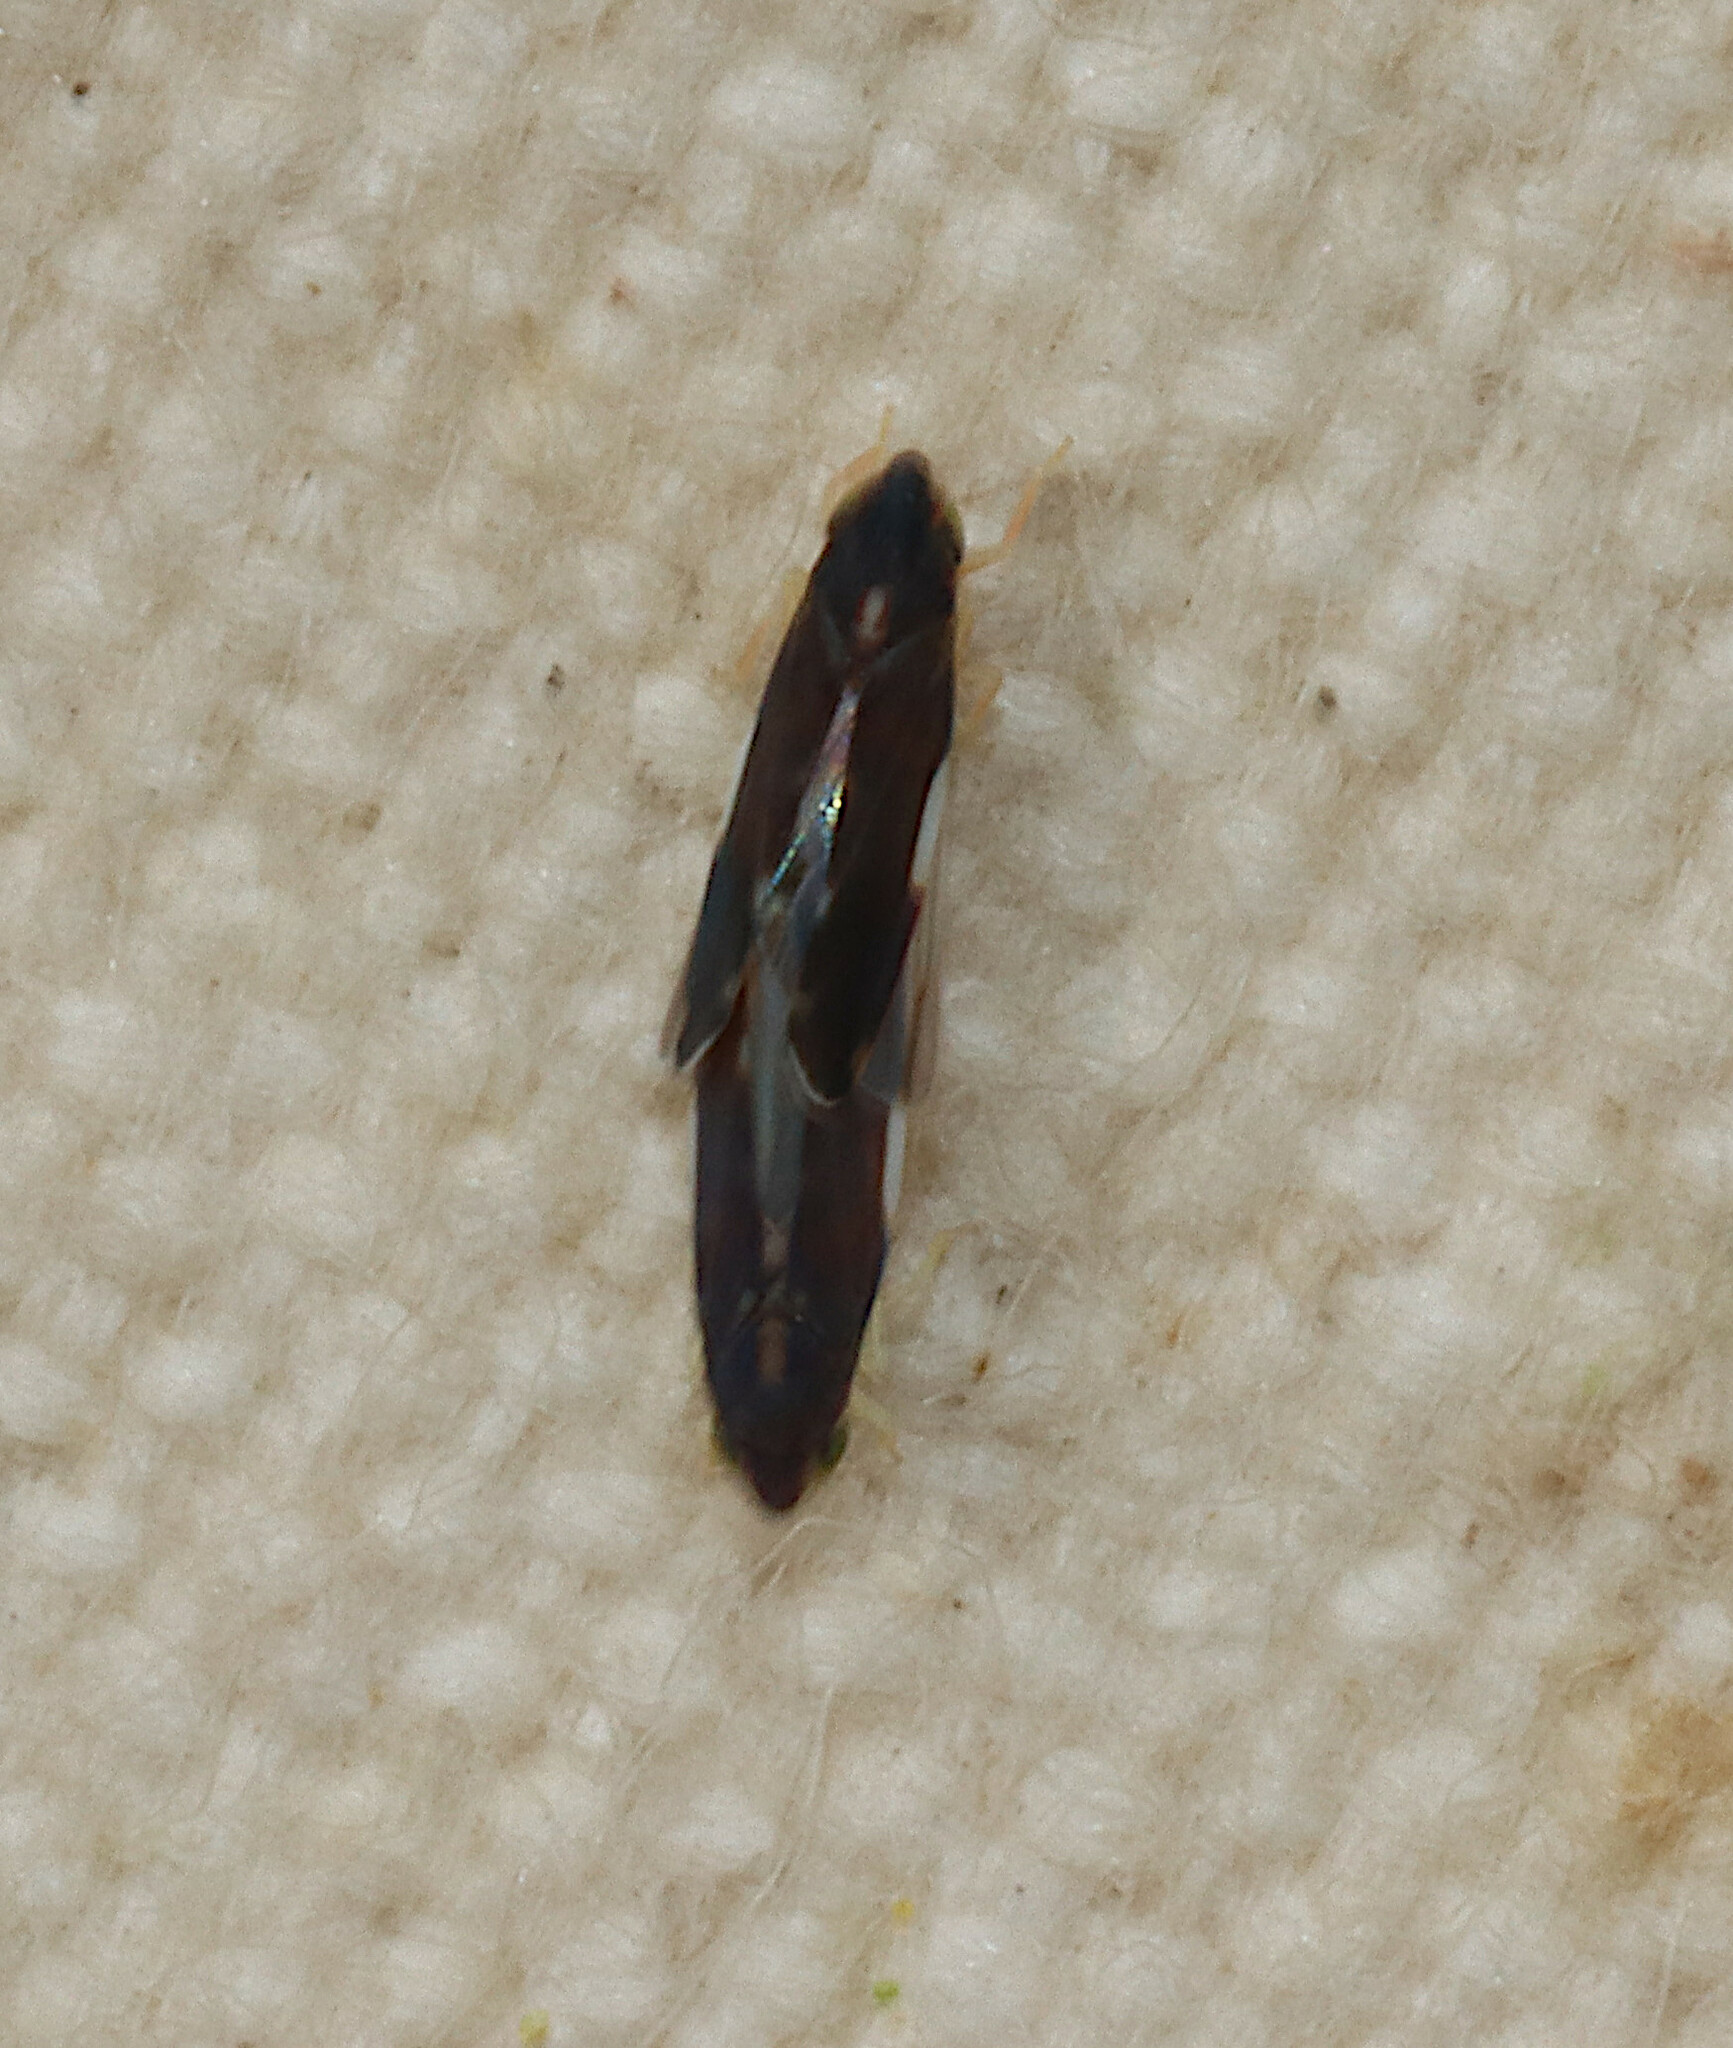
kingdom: Animalia
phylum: Arthropoda
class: Insecta
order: Hemiptera
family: Cicadellidae
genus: Erythroneura
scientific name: Erythroneura infuscata
